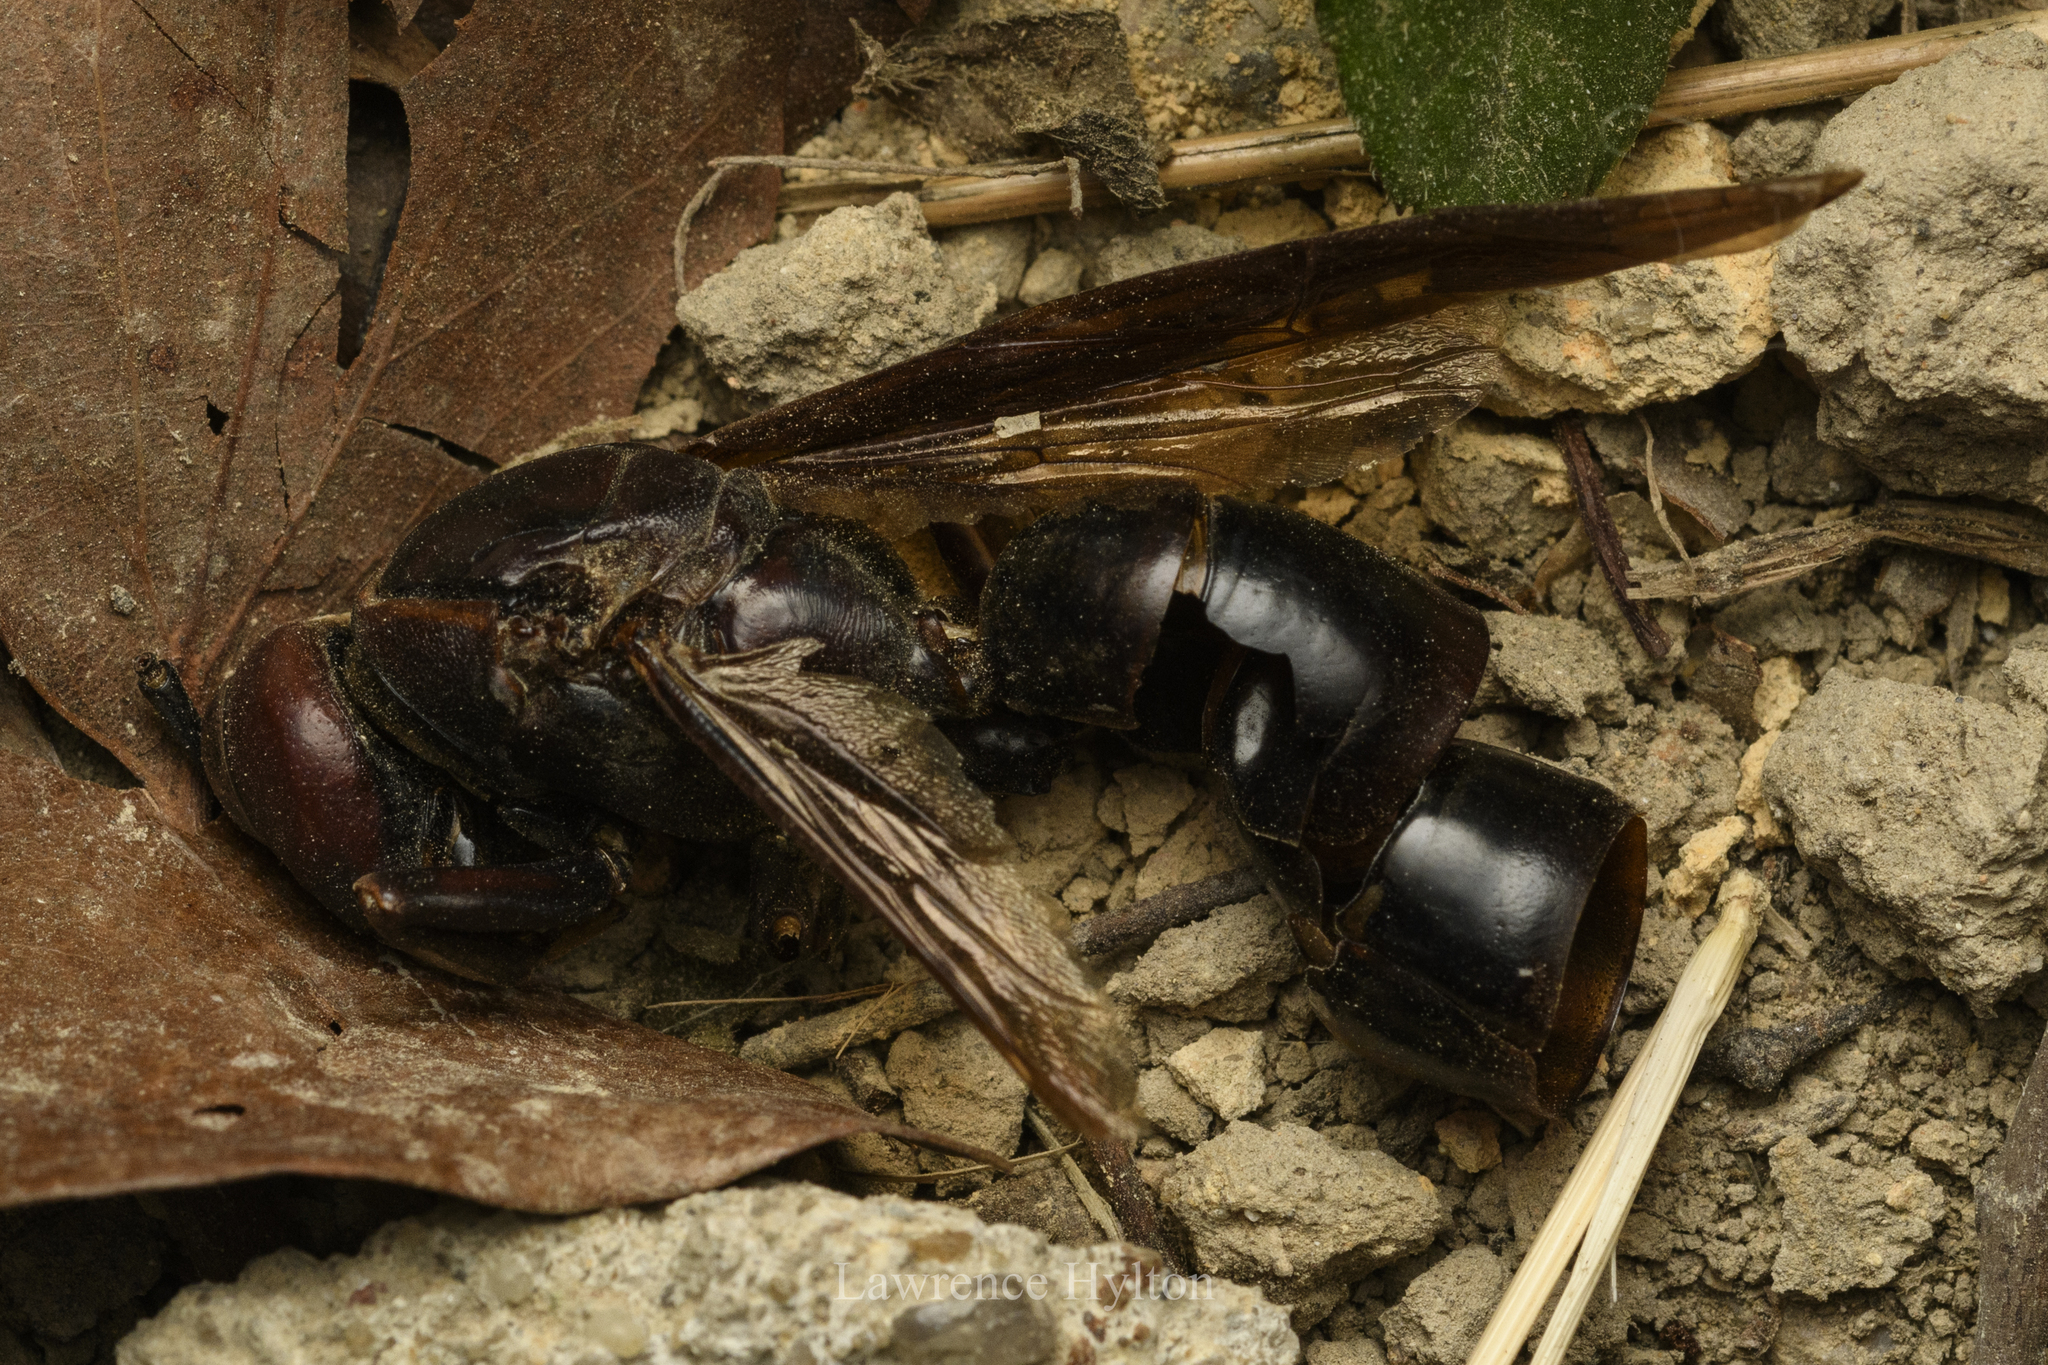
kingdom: Animalia
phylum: Arthropoda
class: Insecta
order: Hymenoptera
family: Eumenidae
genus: Polistes
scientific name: Polistes gigas
